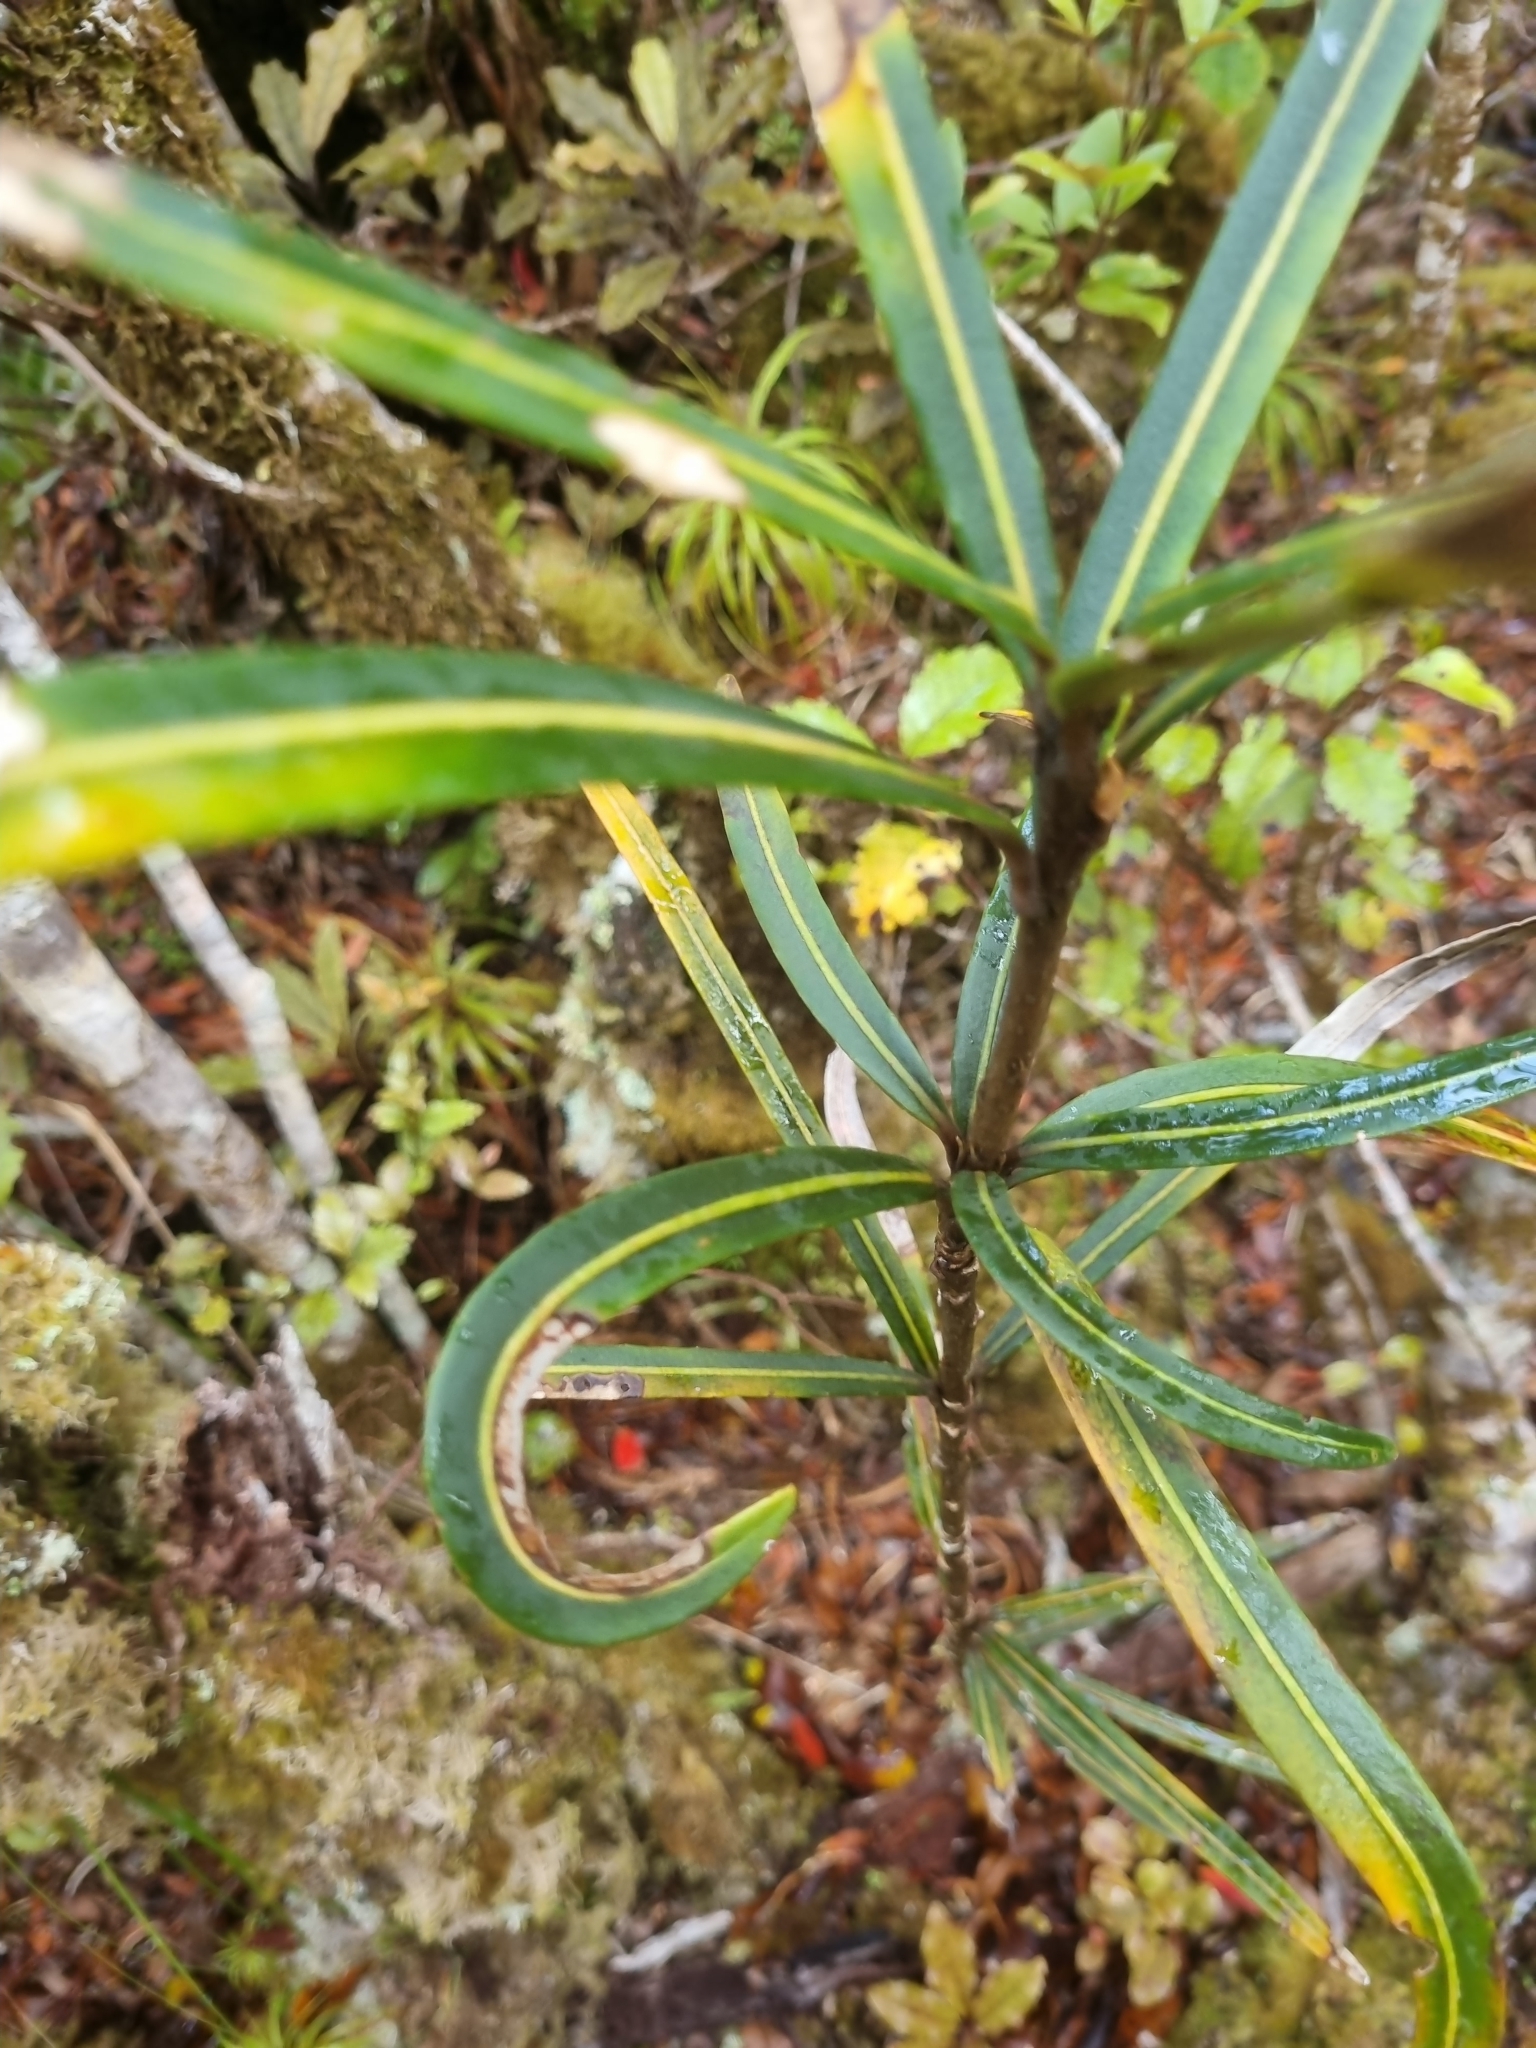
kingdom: Plantae
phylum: Tracheophyta
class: Magnoliopsida
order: Apiales
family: Araliaceae
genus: Pseudopanax
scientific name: Pseudopanax linearis
